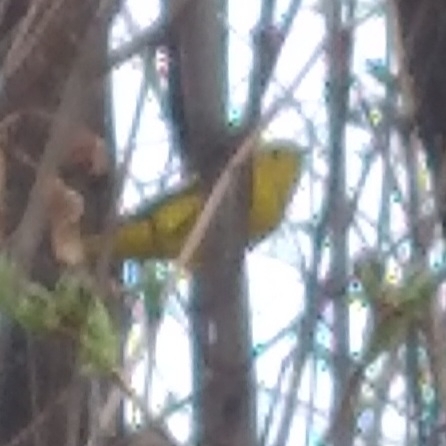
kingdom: Animalia
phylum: Chordata
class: Aves
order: Passeriformes
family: Parulidae
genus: Setophaga
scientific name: Setophaga petechia
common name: Yellow warbler
